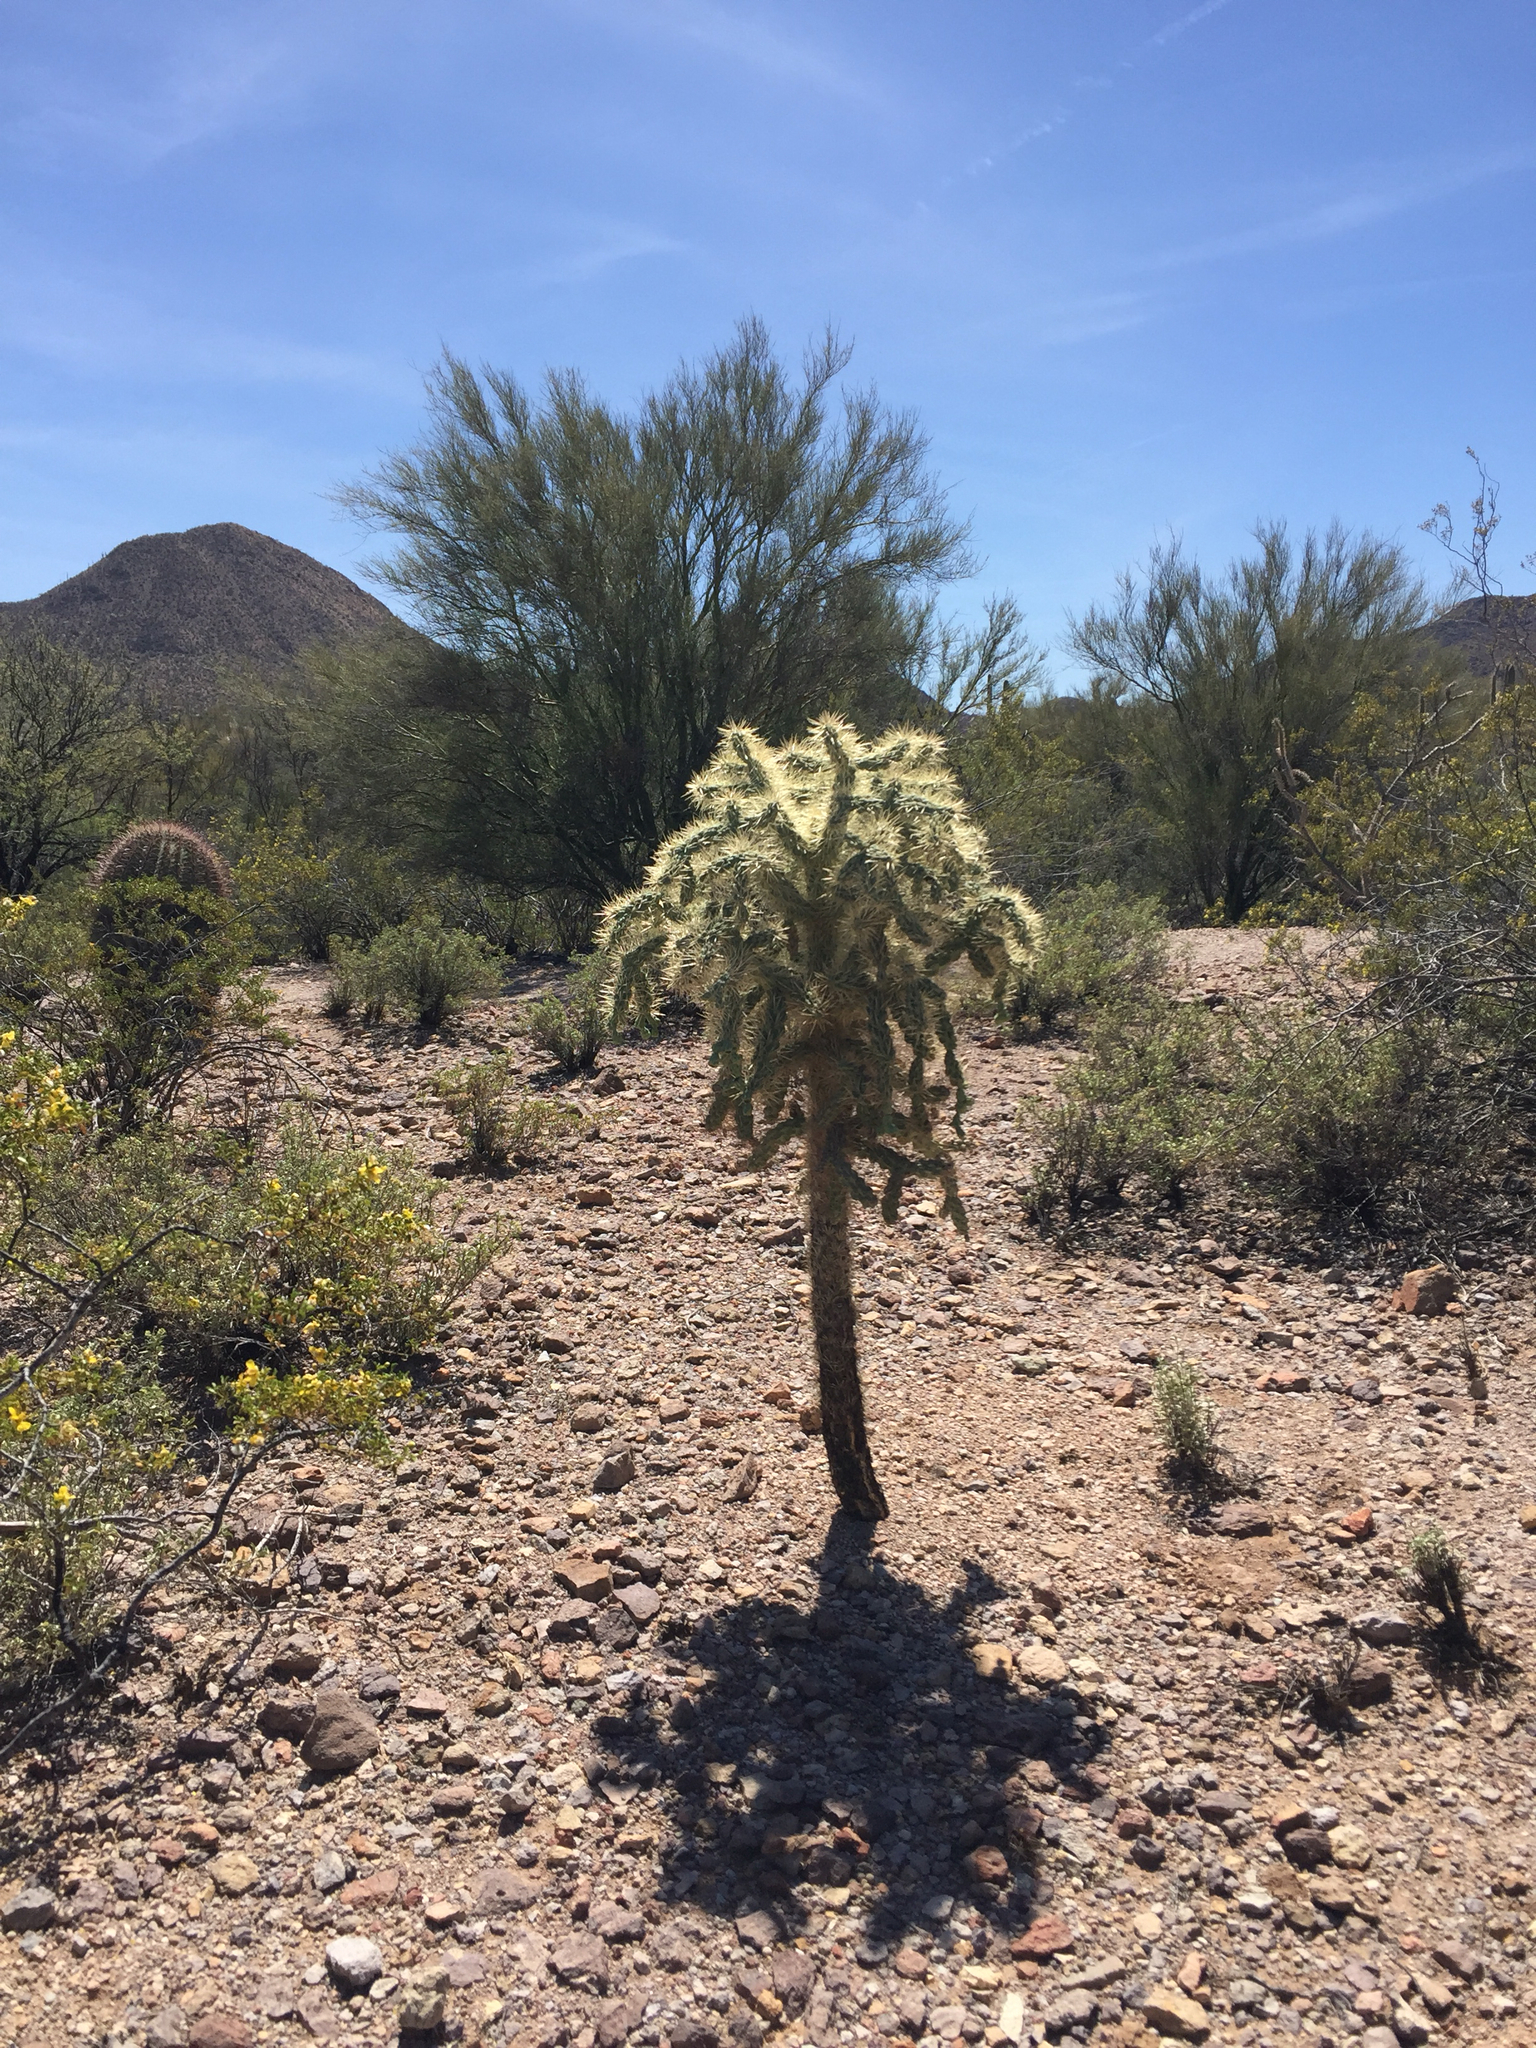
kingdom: Plantae
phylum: Tracheophyta
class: Magnoliopsida
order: Caryophyllales
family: Cactaceae
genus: Cylindropuntia
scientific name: Cylindropuntia fulgida
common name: Jumping cholla
